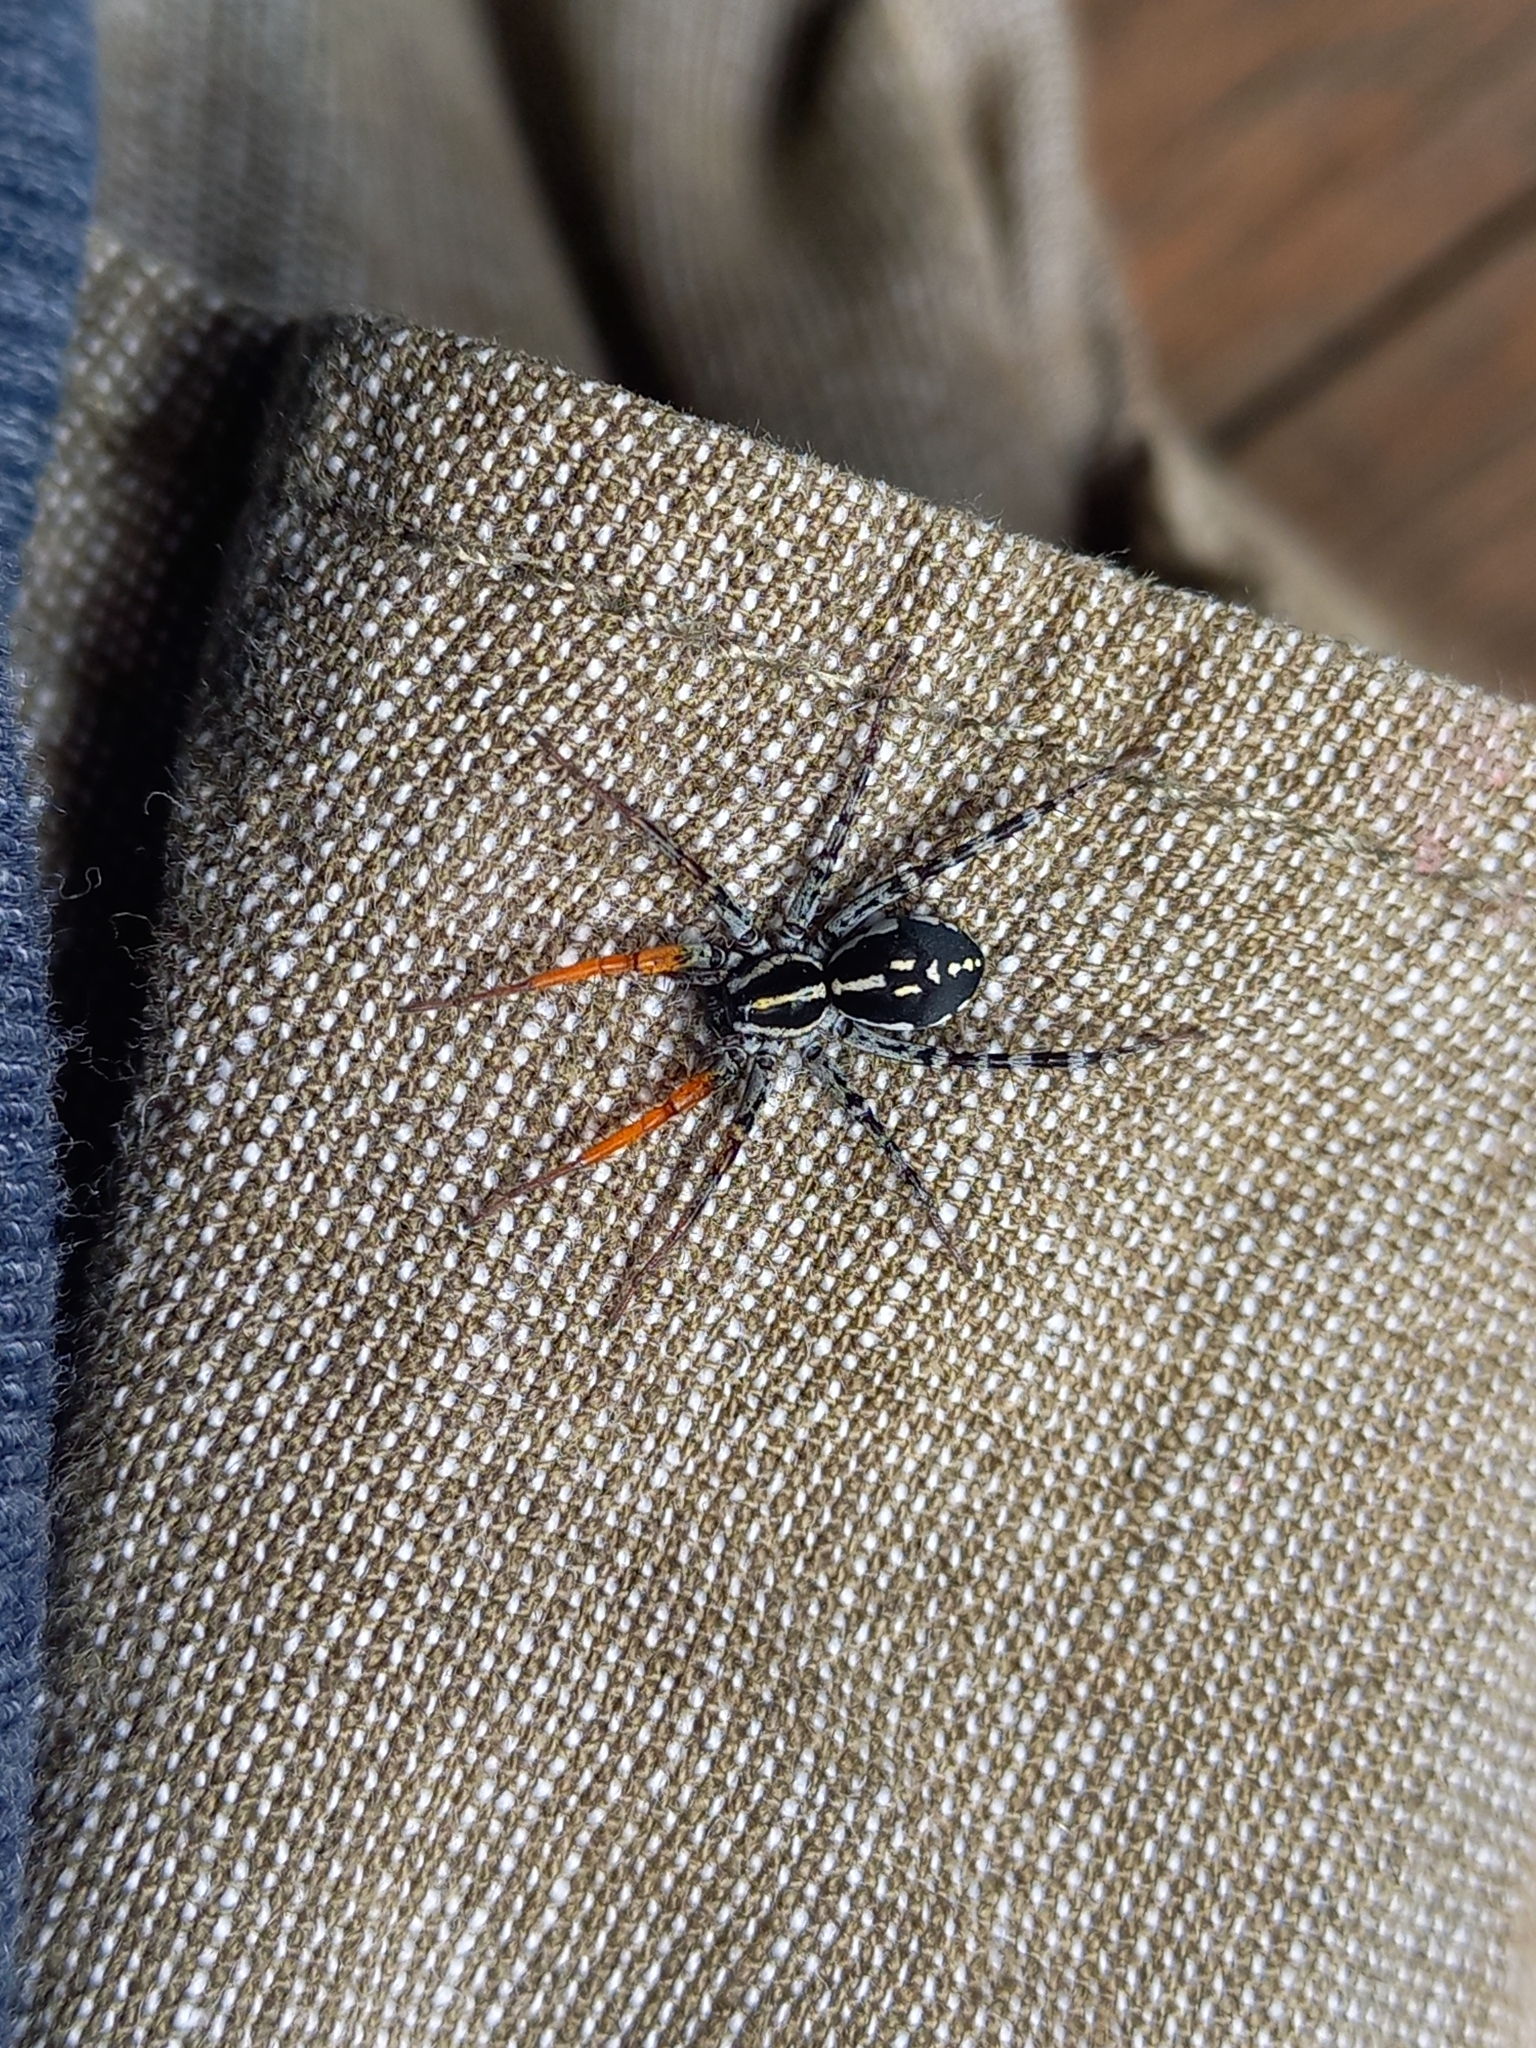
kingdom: Animalia
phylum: Arthropoda
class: Arachnida
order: Araneae
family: Corinnidae
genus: Nyssus
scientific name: Nyssus coloripes
